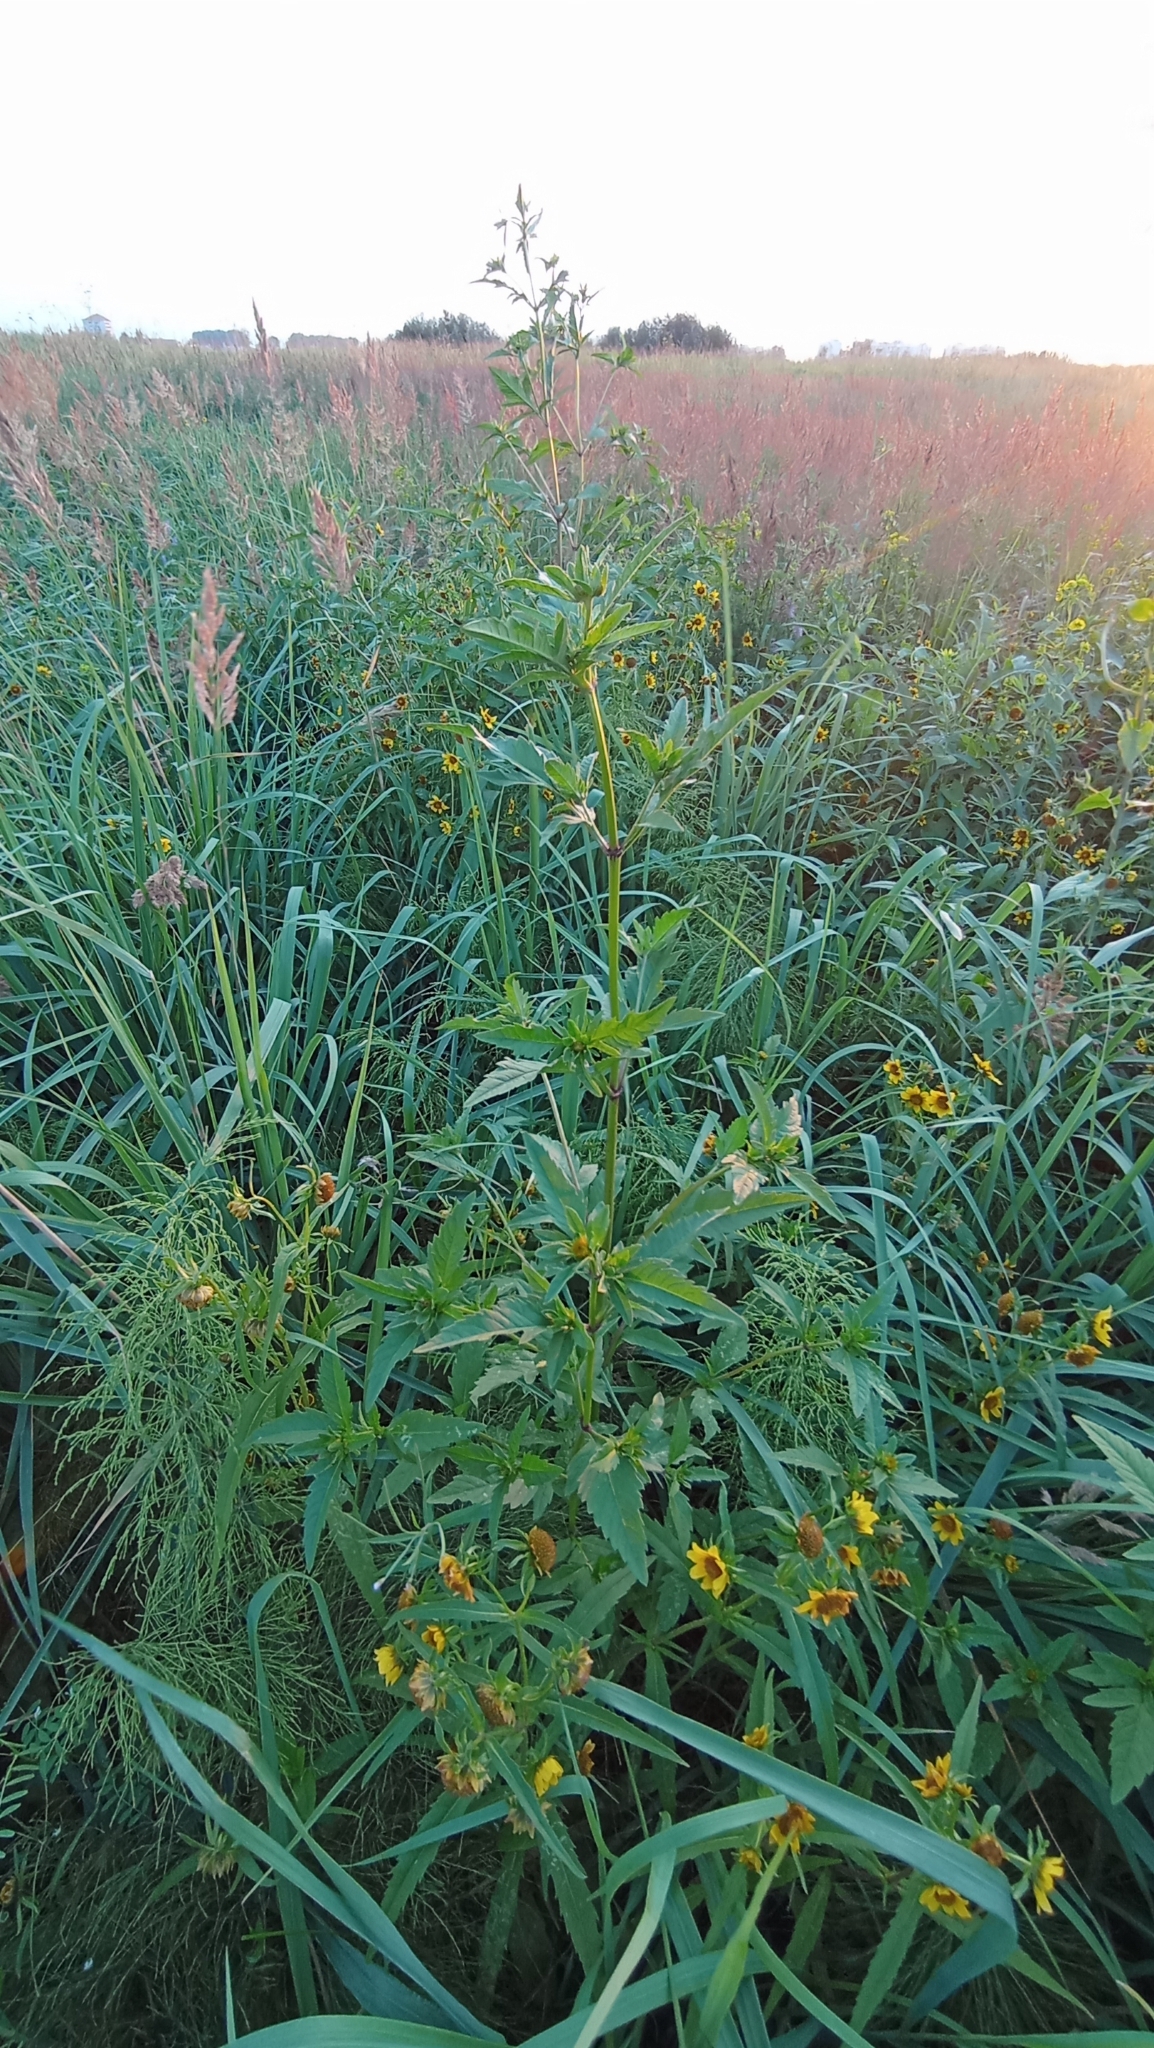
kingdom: Plantae
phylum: Tracheophyta
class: Magnoliopsida
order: Asterales
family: Asteraceae
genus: Bidens
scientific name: Bidens cernua
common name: Nodding bur-marigold
